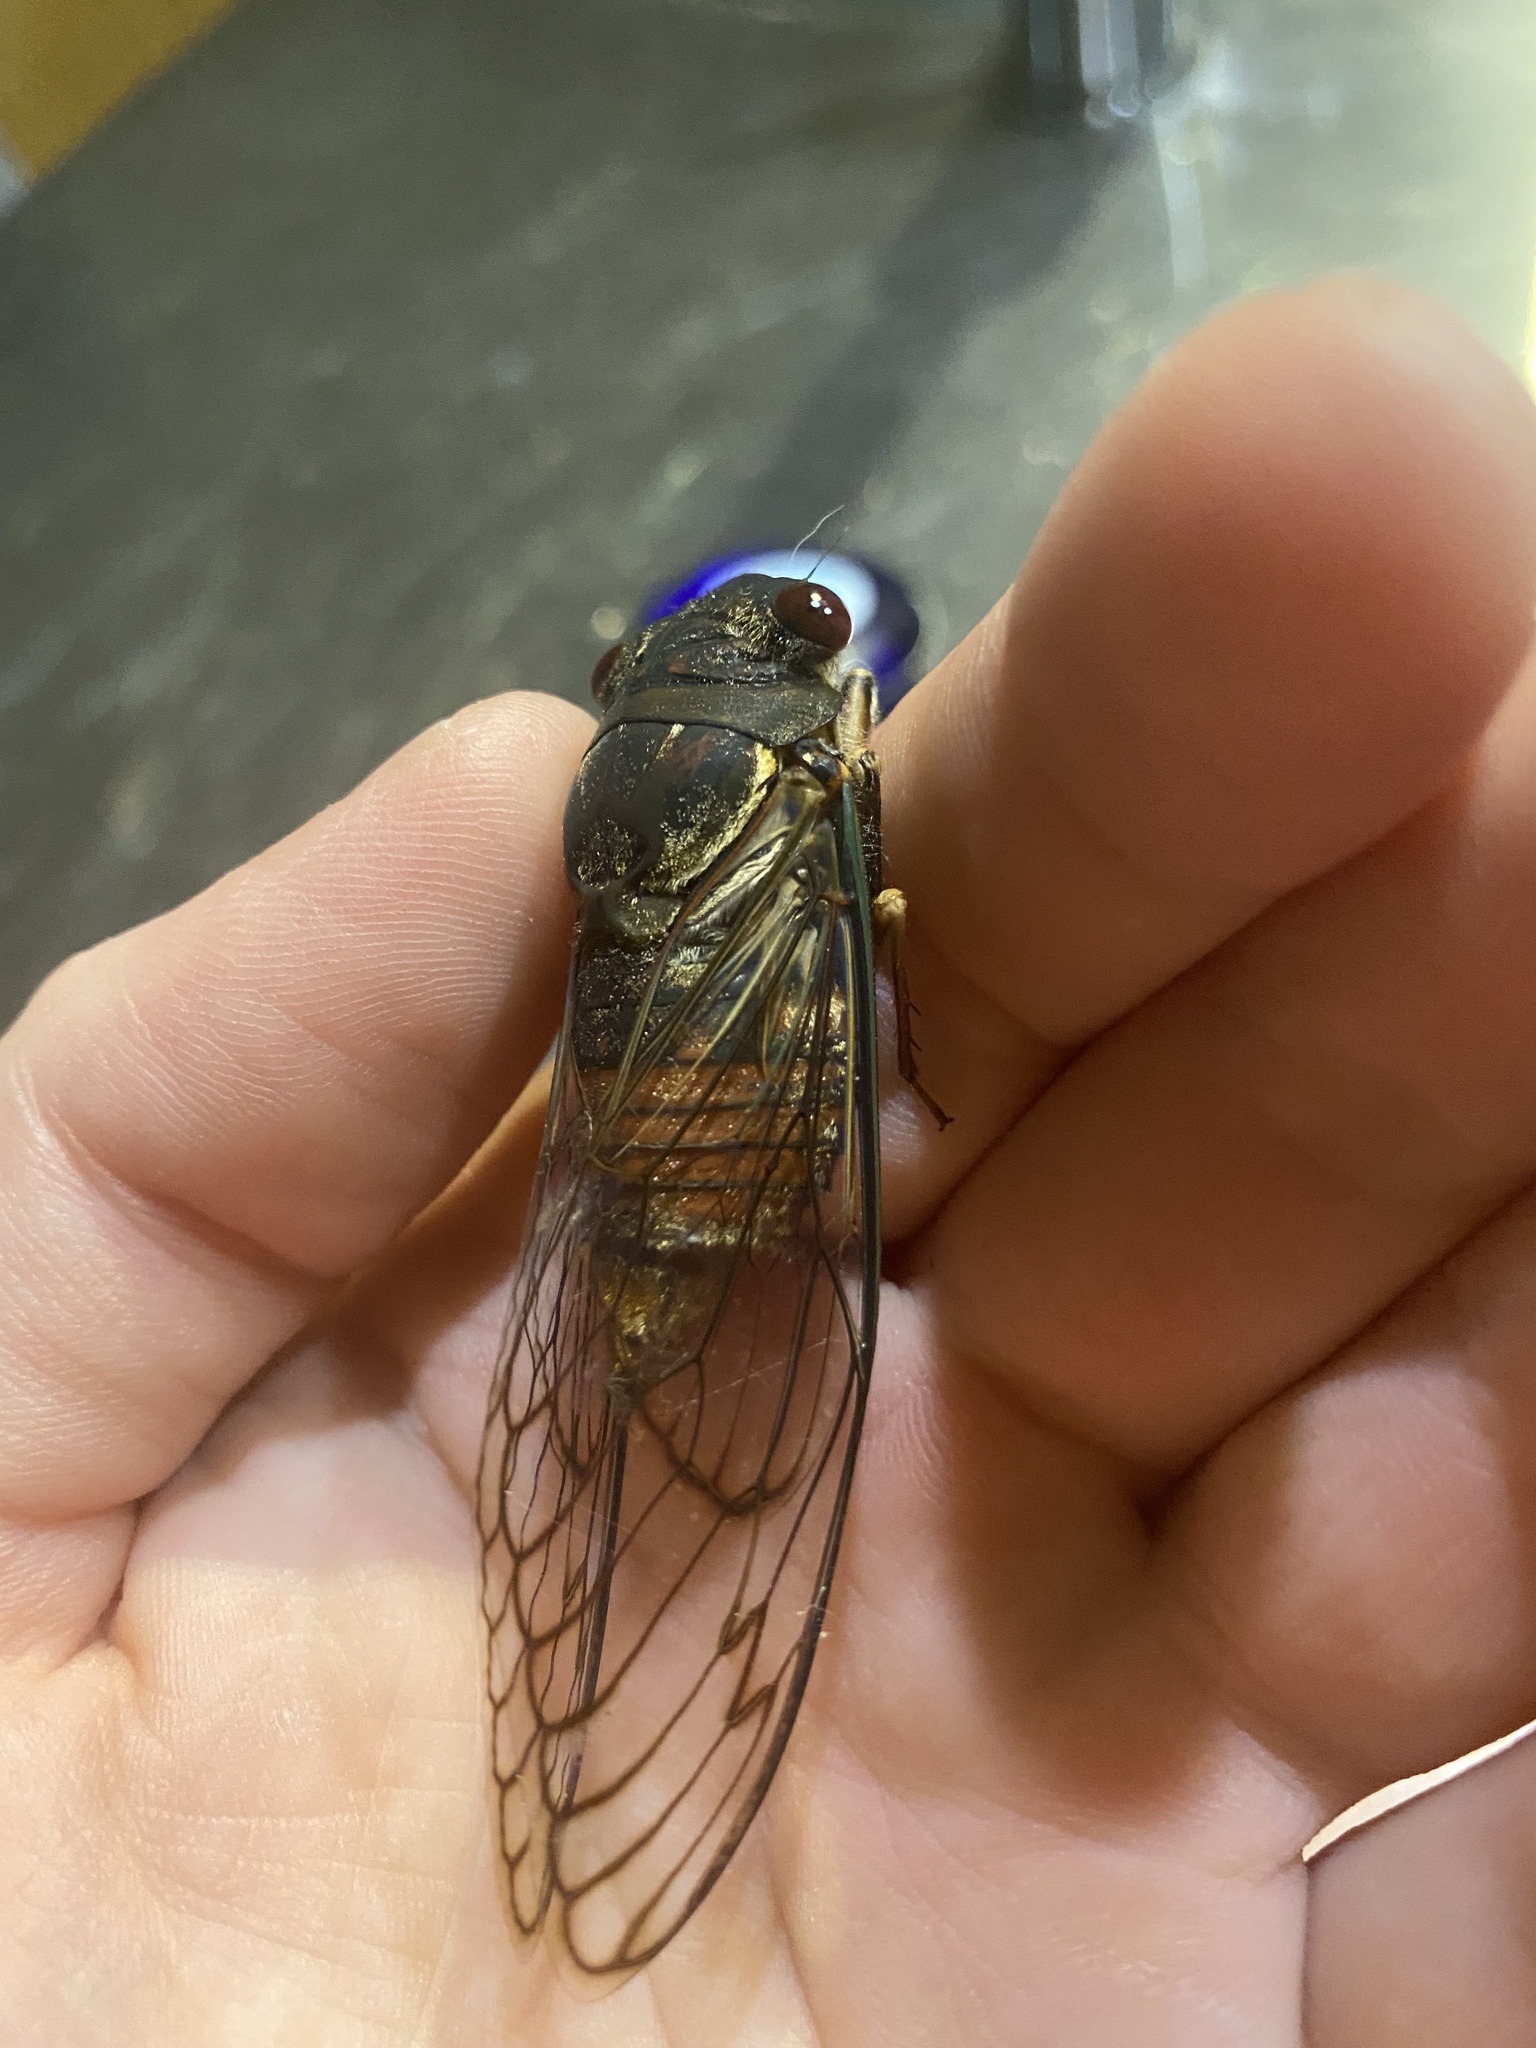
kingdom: Animalia
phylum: Arthropoda
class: Insecta
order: Hemiptera
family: Cicadidae
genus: Psaltoda
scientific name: Psaltoda aurora
